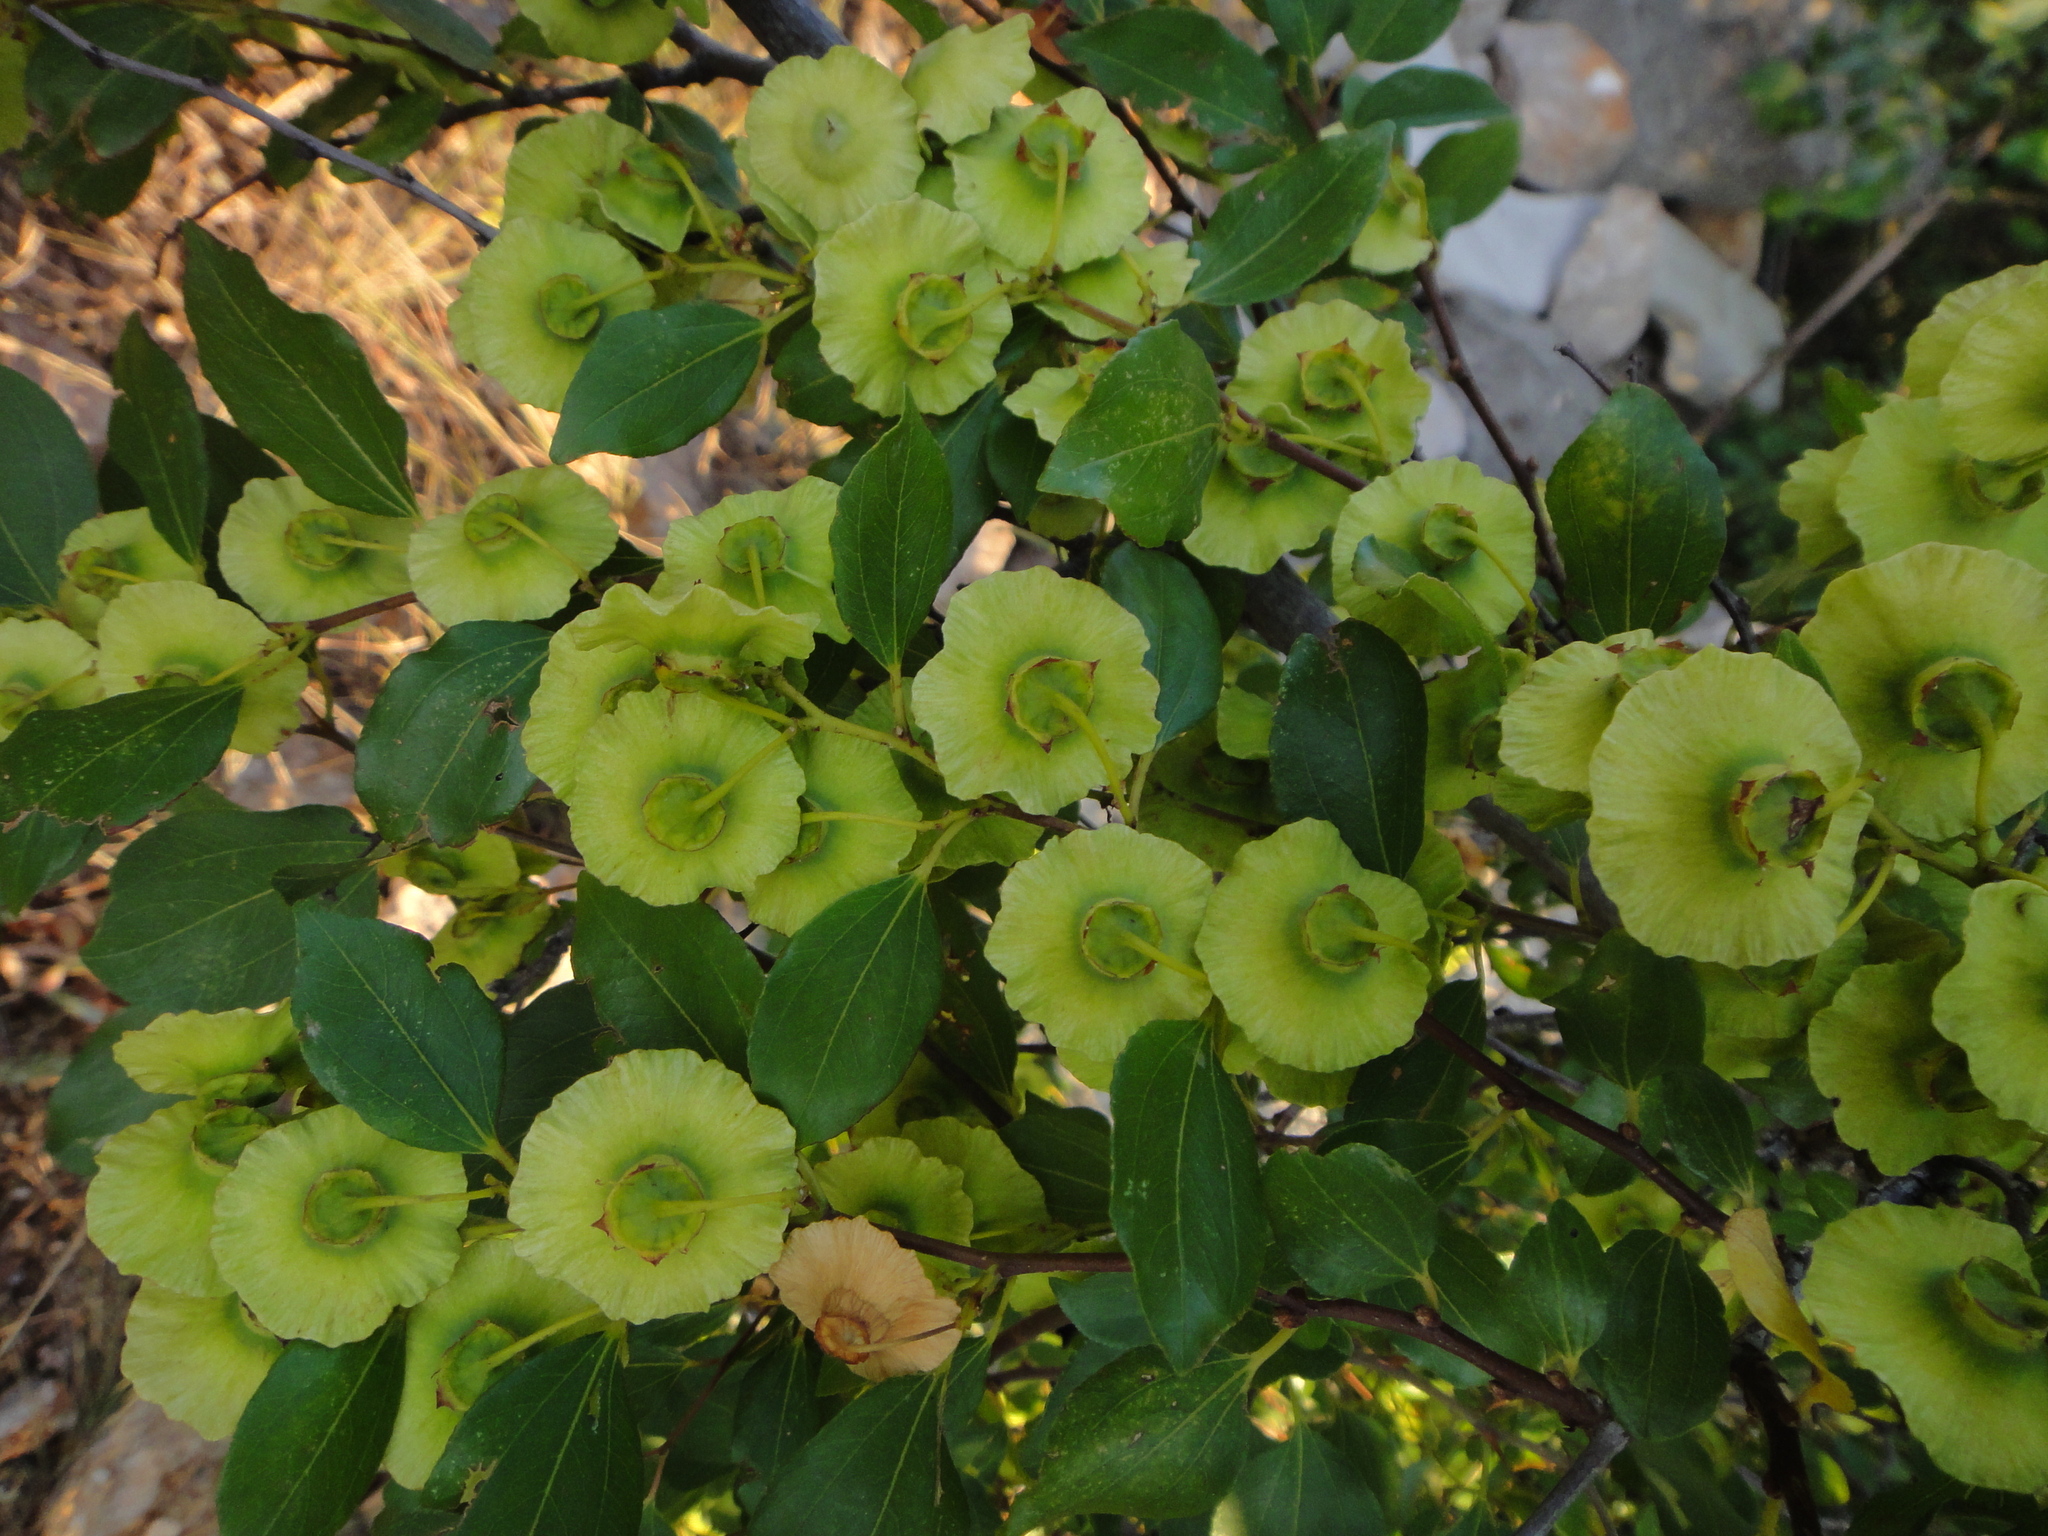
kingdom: Plantae
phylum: Tracheophyta
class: Magnoliopsida
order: Rosales
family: Rhamnaceae
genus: Paliurus
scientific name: Paliurus spina-christi
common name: Jeruselem thorn
